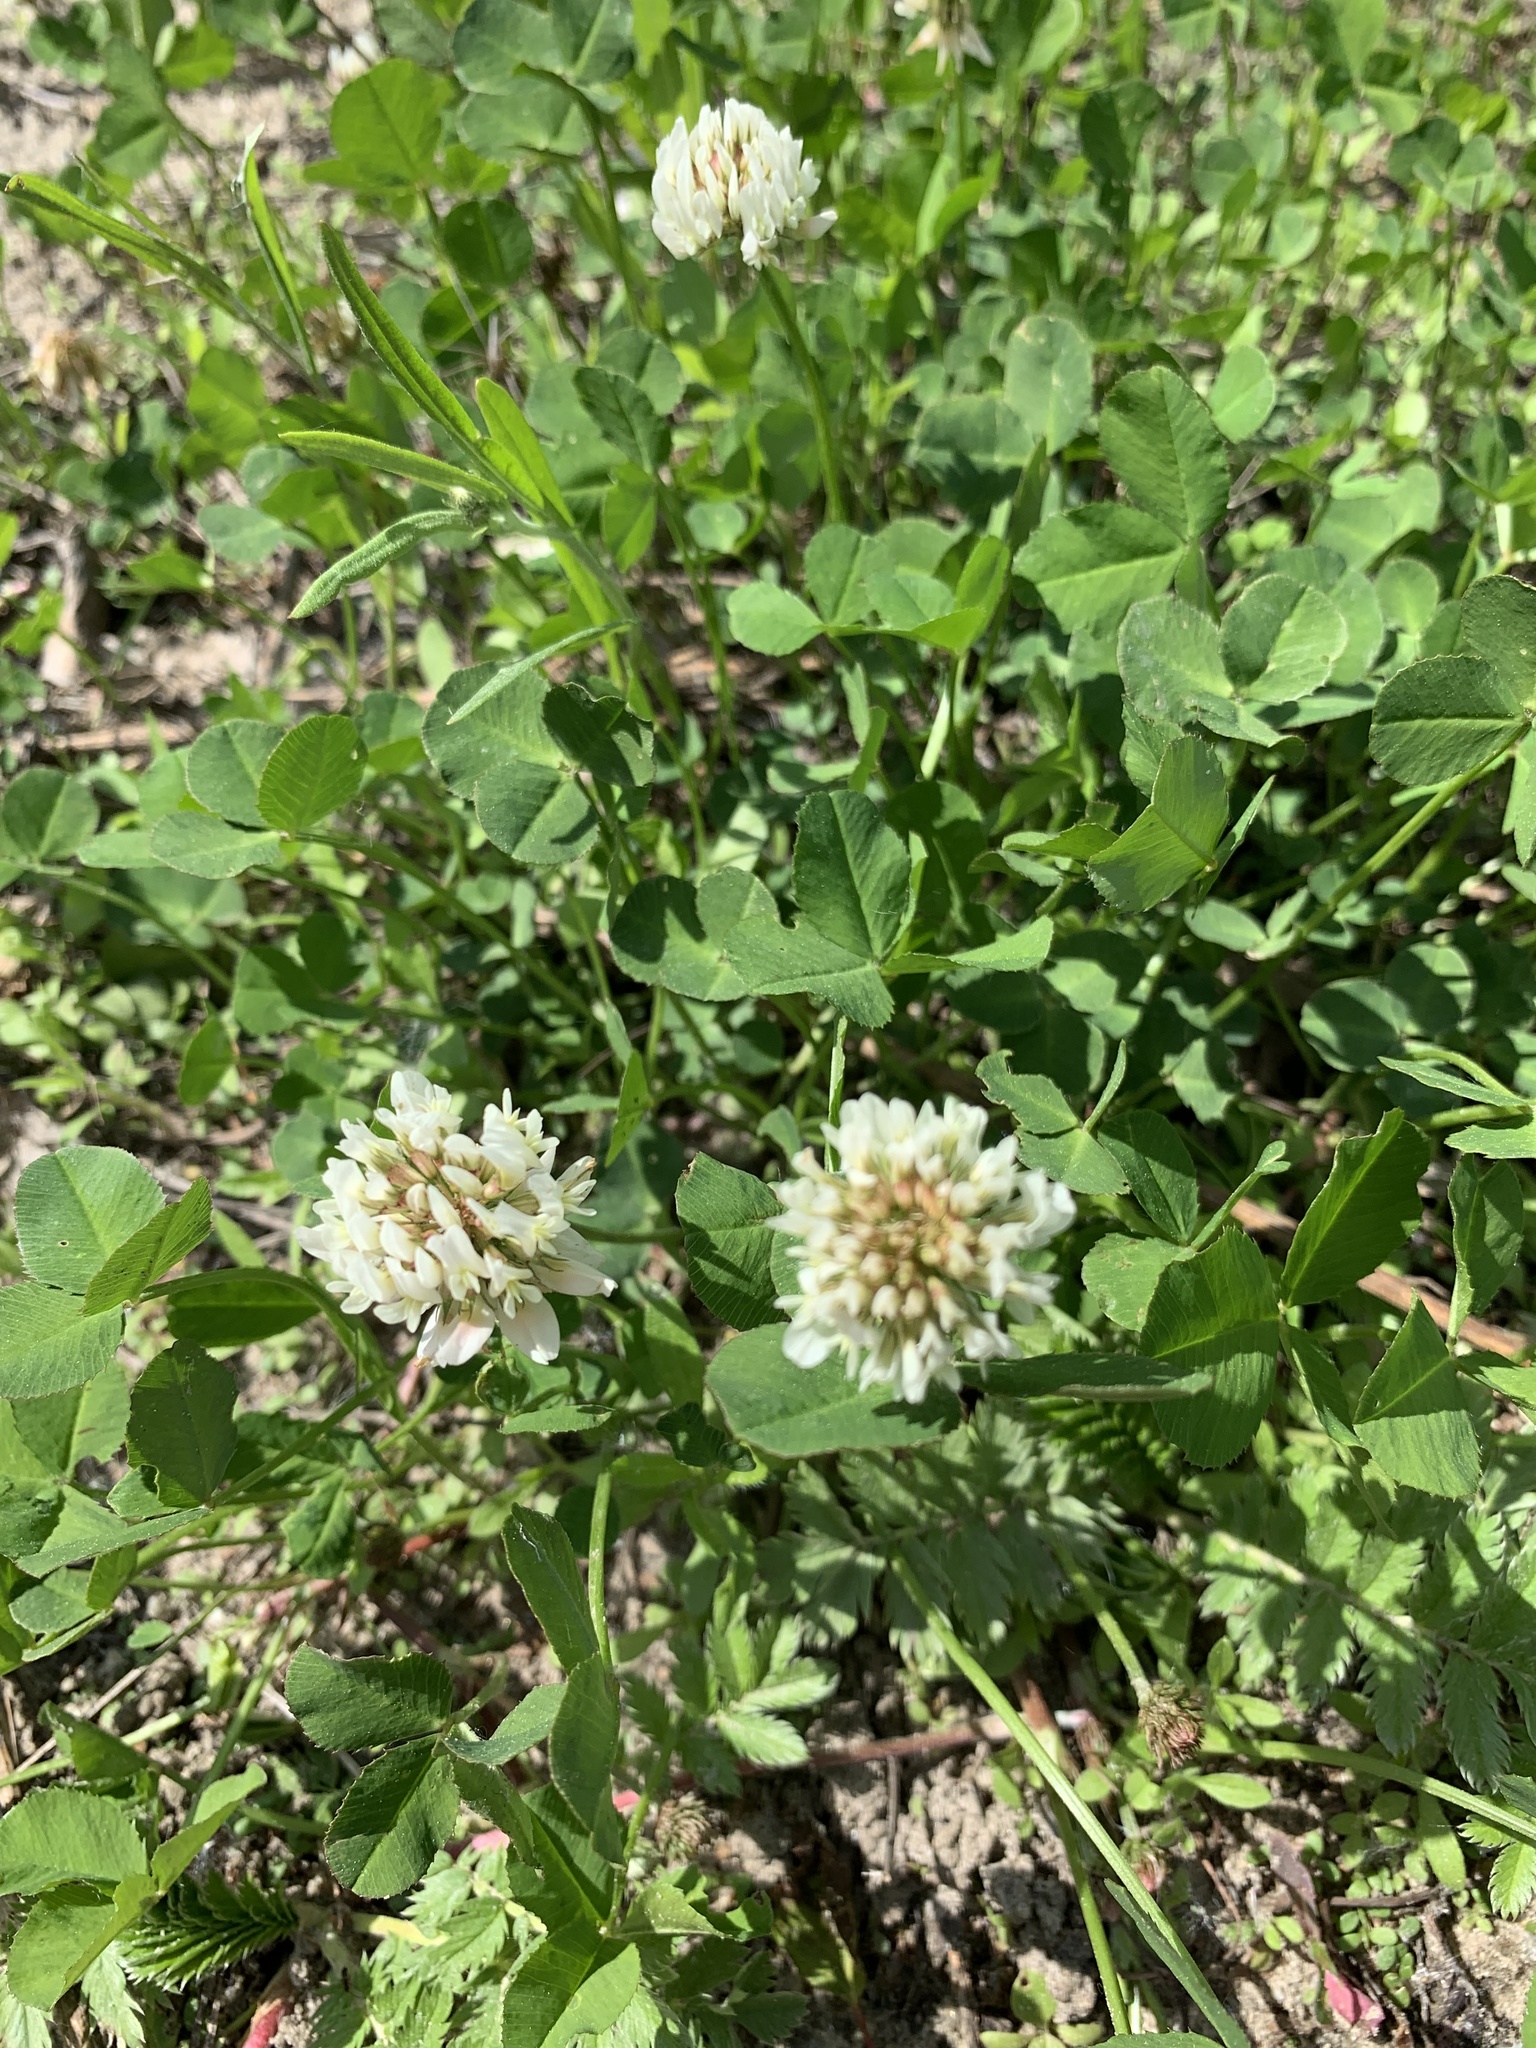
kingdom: Plantae
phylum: Tracheophyta
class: Magnoliopsida
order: Fabales
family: Fabaceae
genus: Trifolium
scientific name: Trifolium repens
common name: White clover
